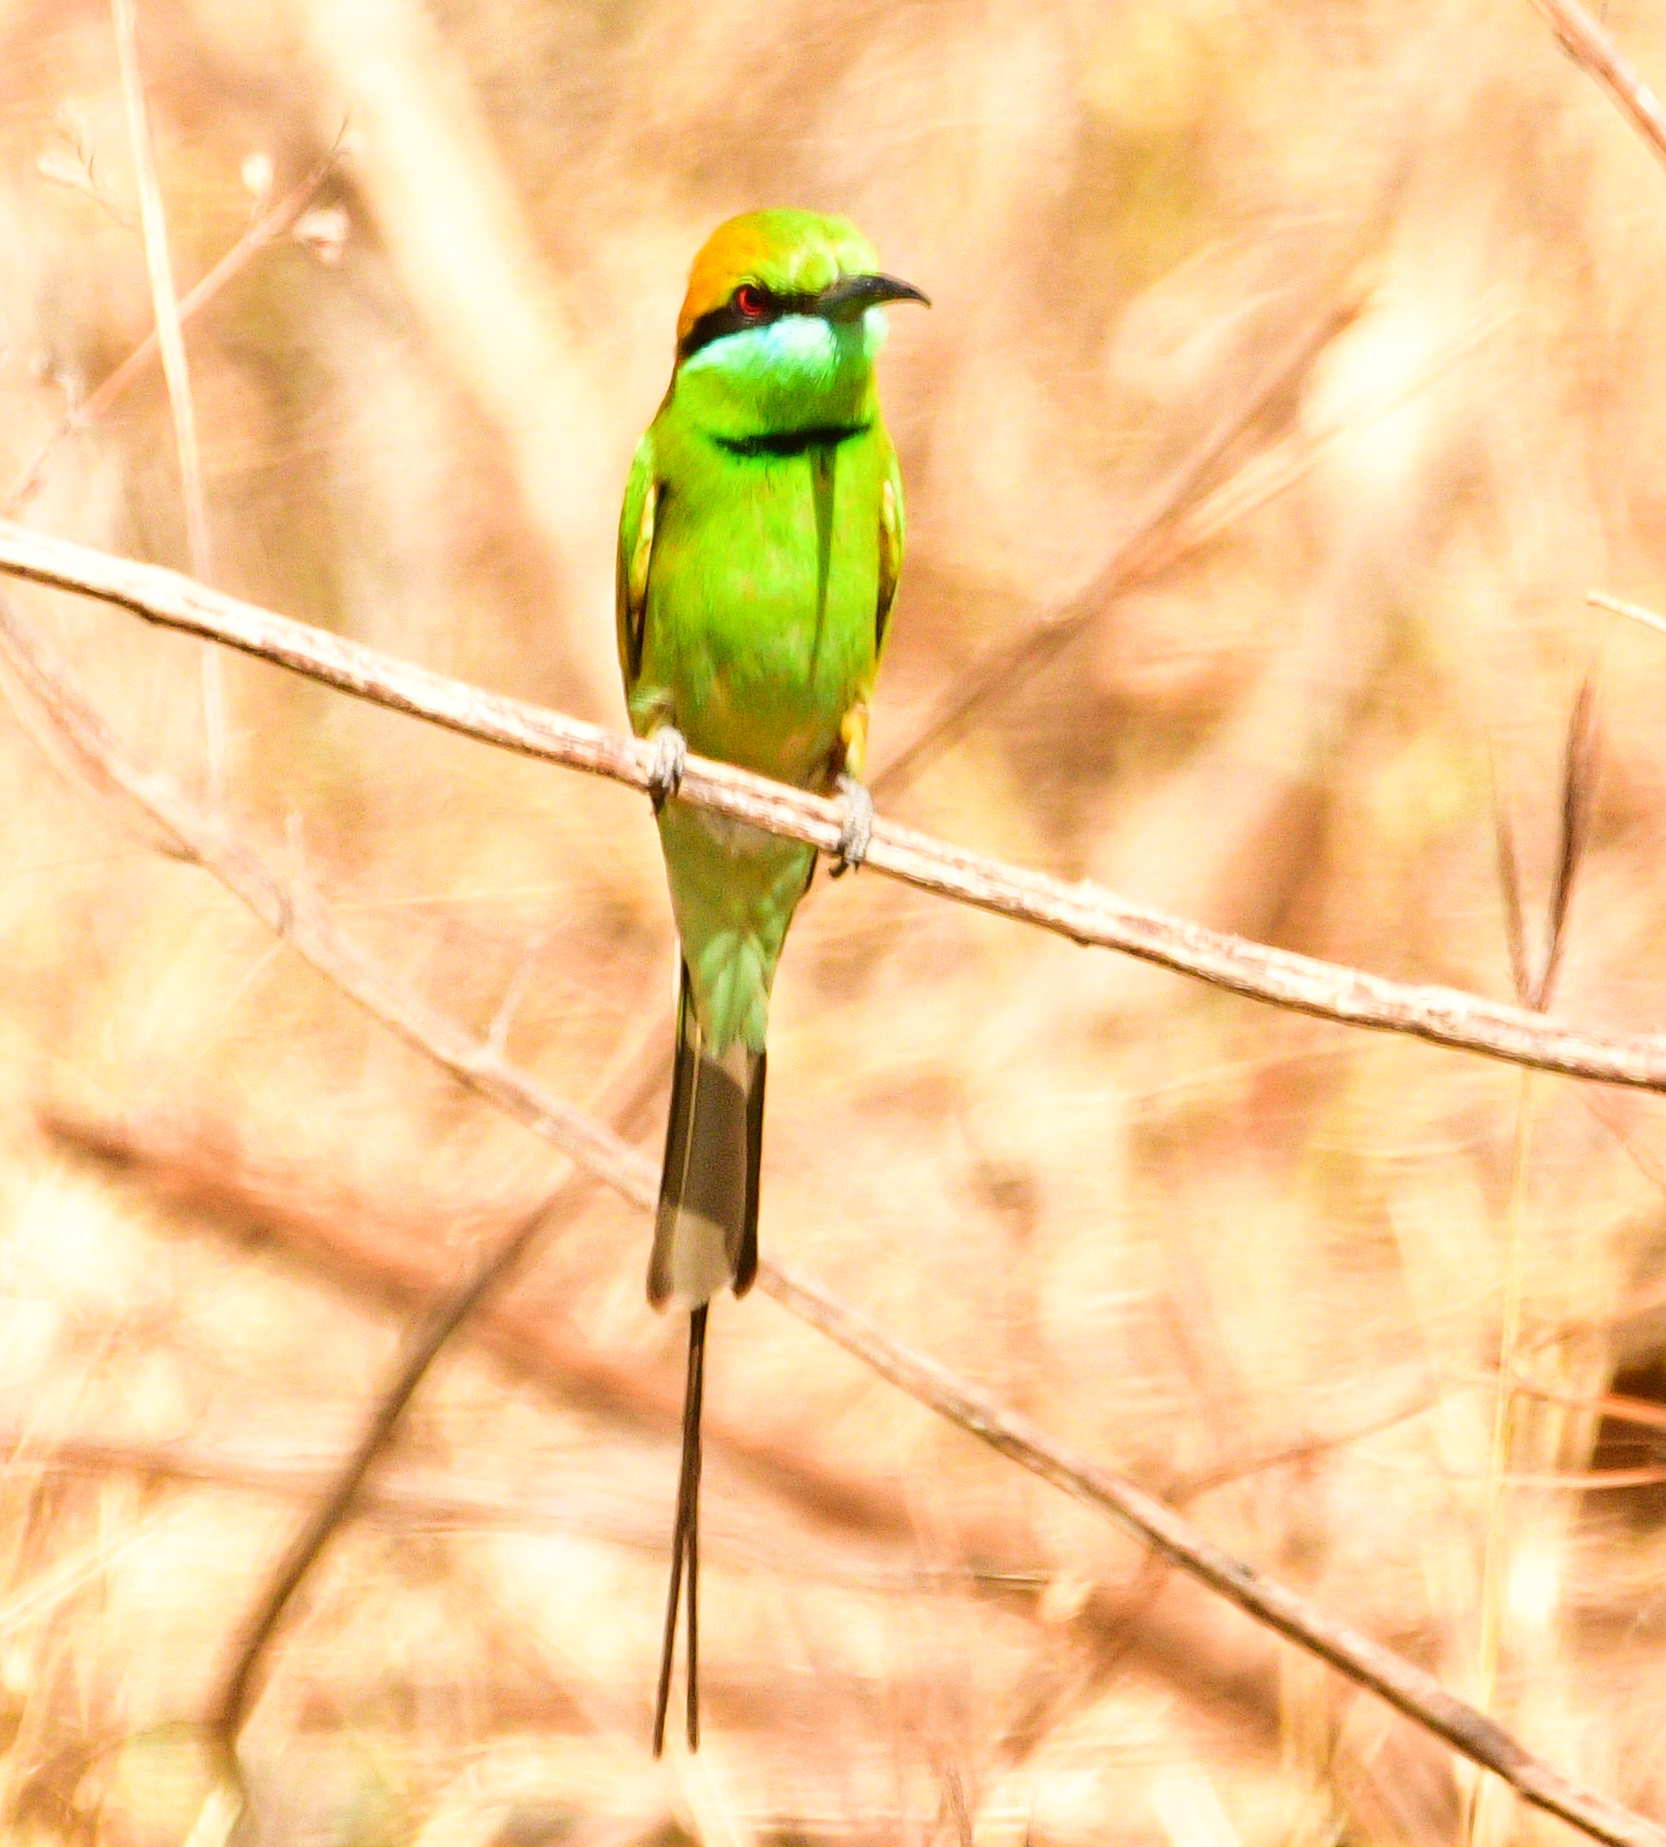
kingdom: Animalia
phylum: Chordata
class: Aves
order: Coraciiformes
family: Meropidae
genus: Merops
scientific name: Merops orientalis
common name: Green bee-eater
